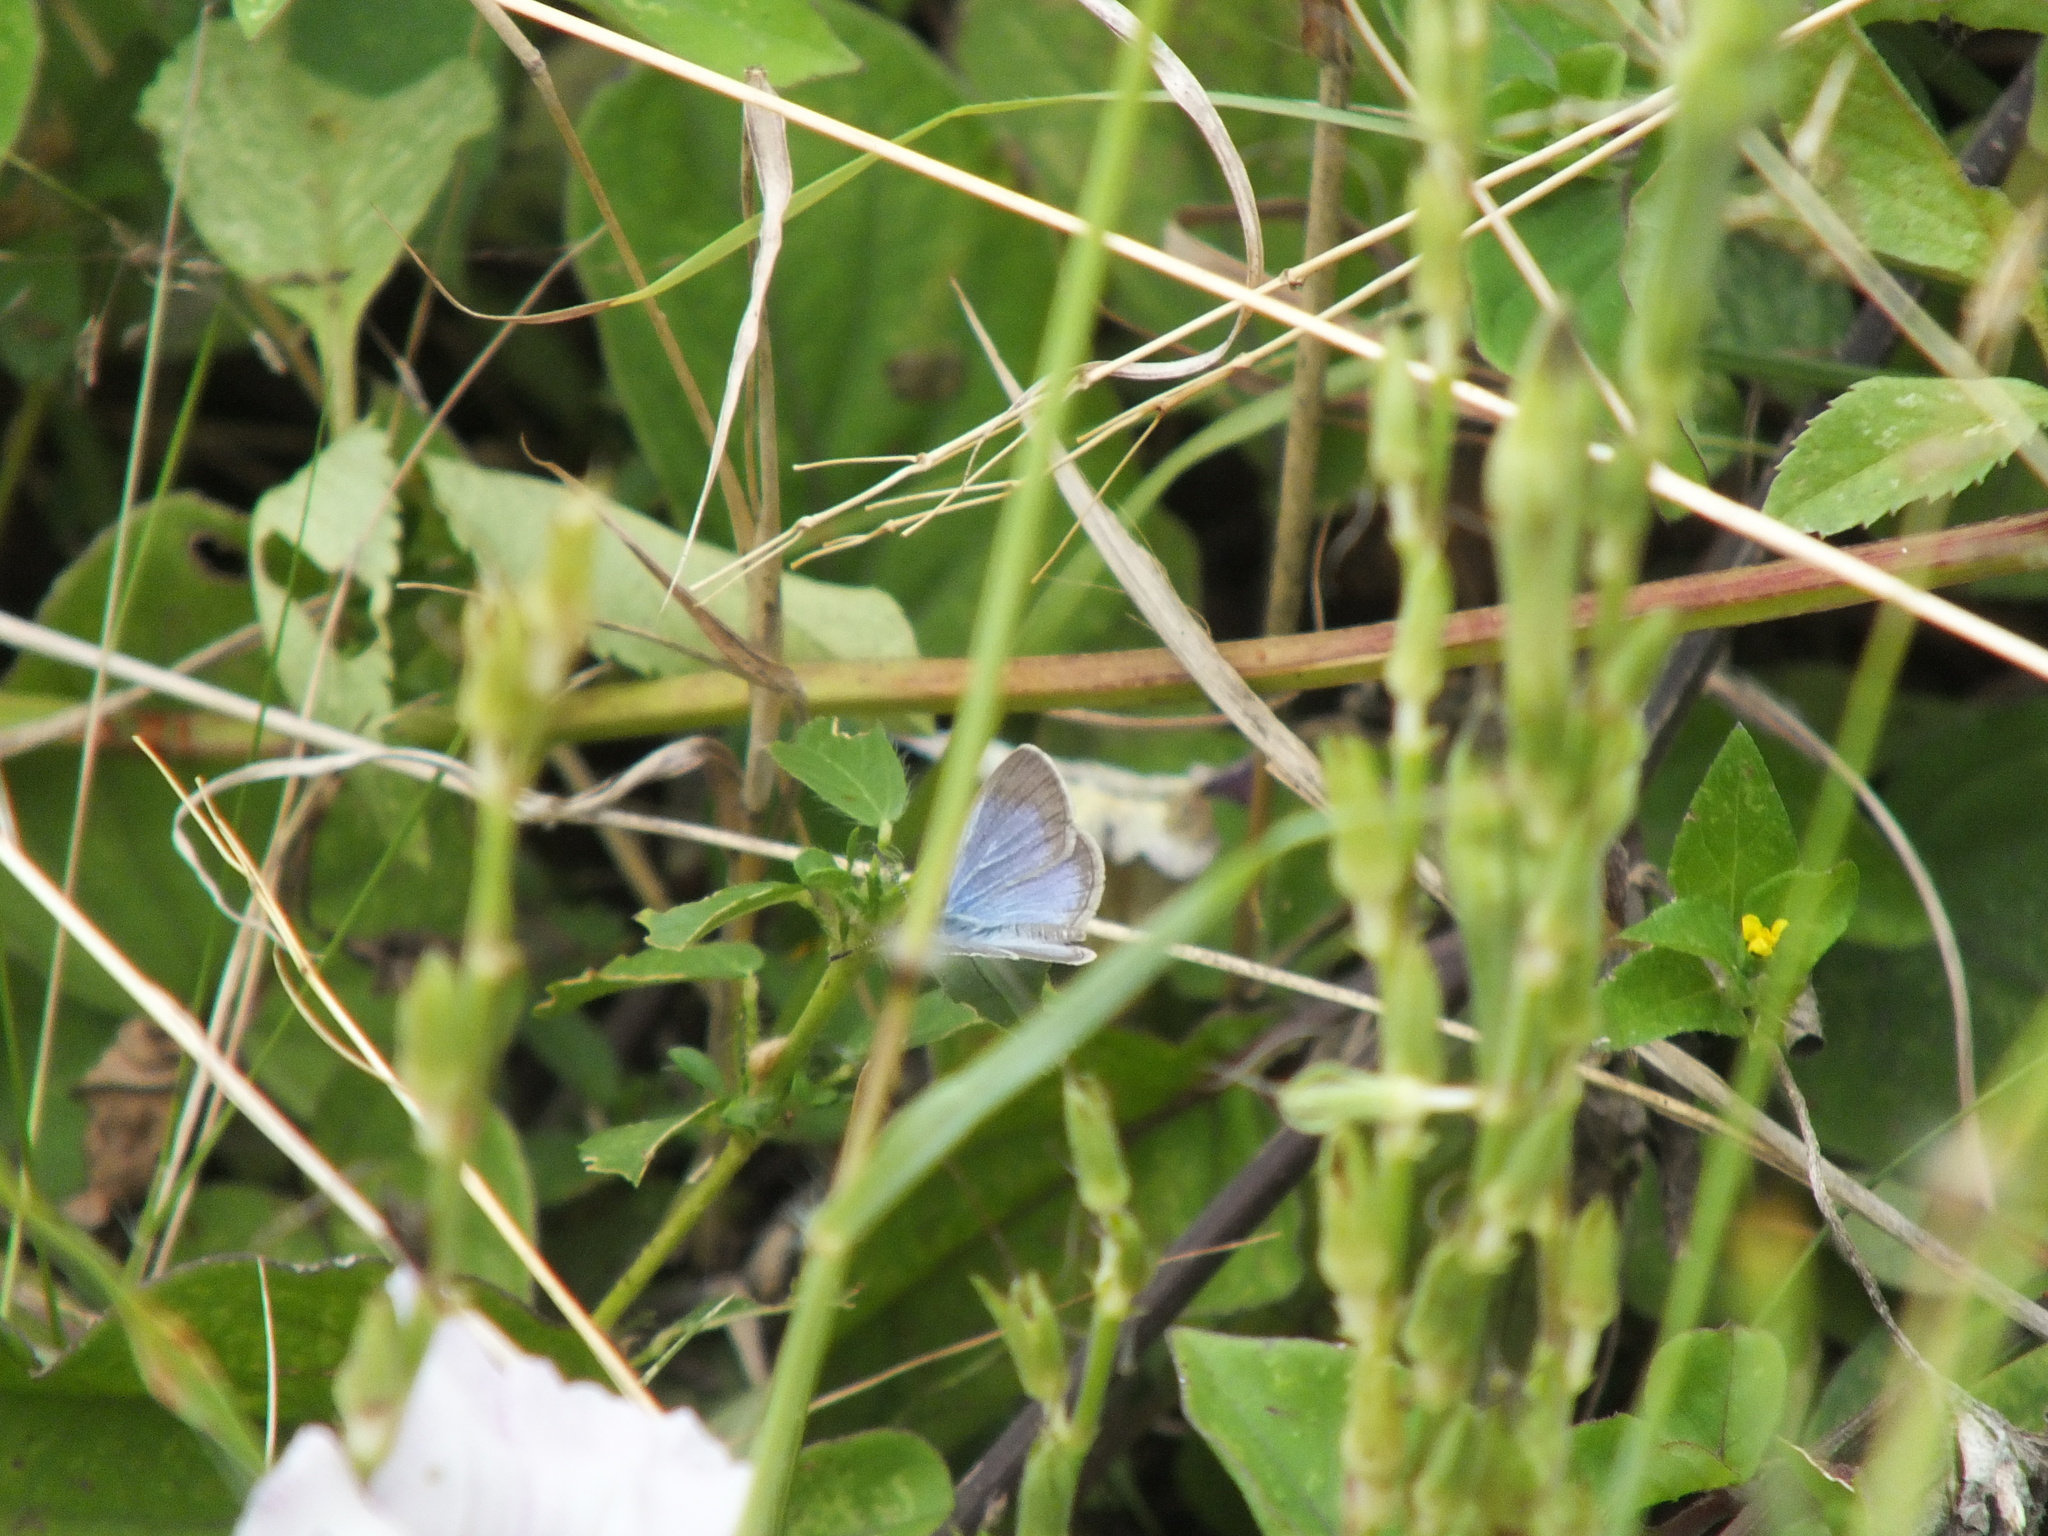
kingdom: Animalia
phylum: Arthropoda
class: Insecta
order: Lepidoptera
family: Lycaenidae
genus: Zizina
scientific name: Zizina otis
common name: Lesser grass blue
